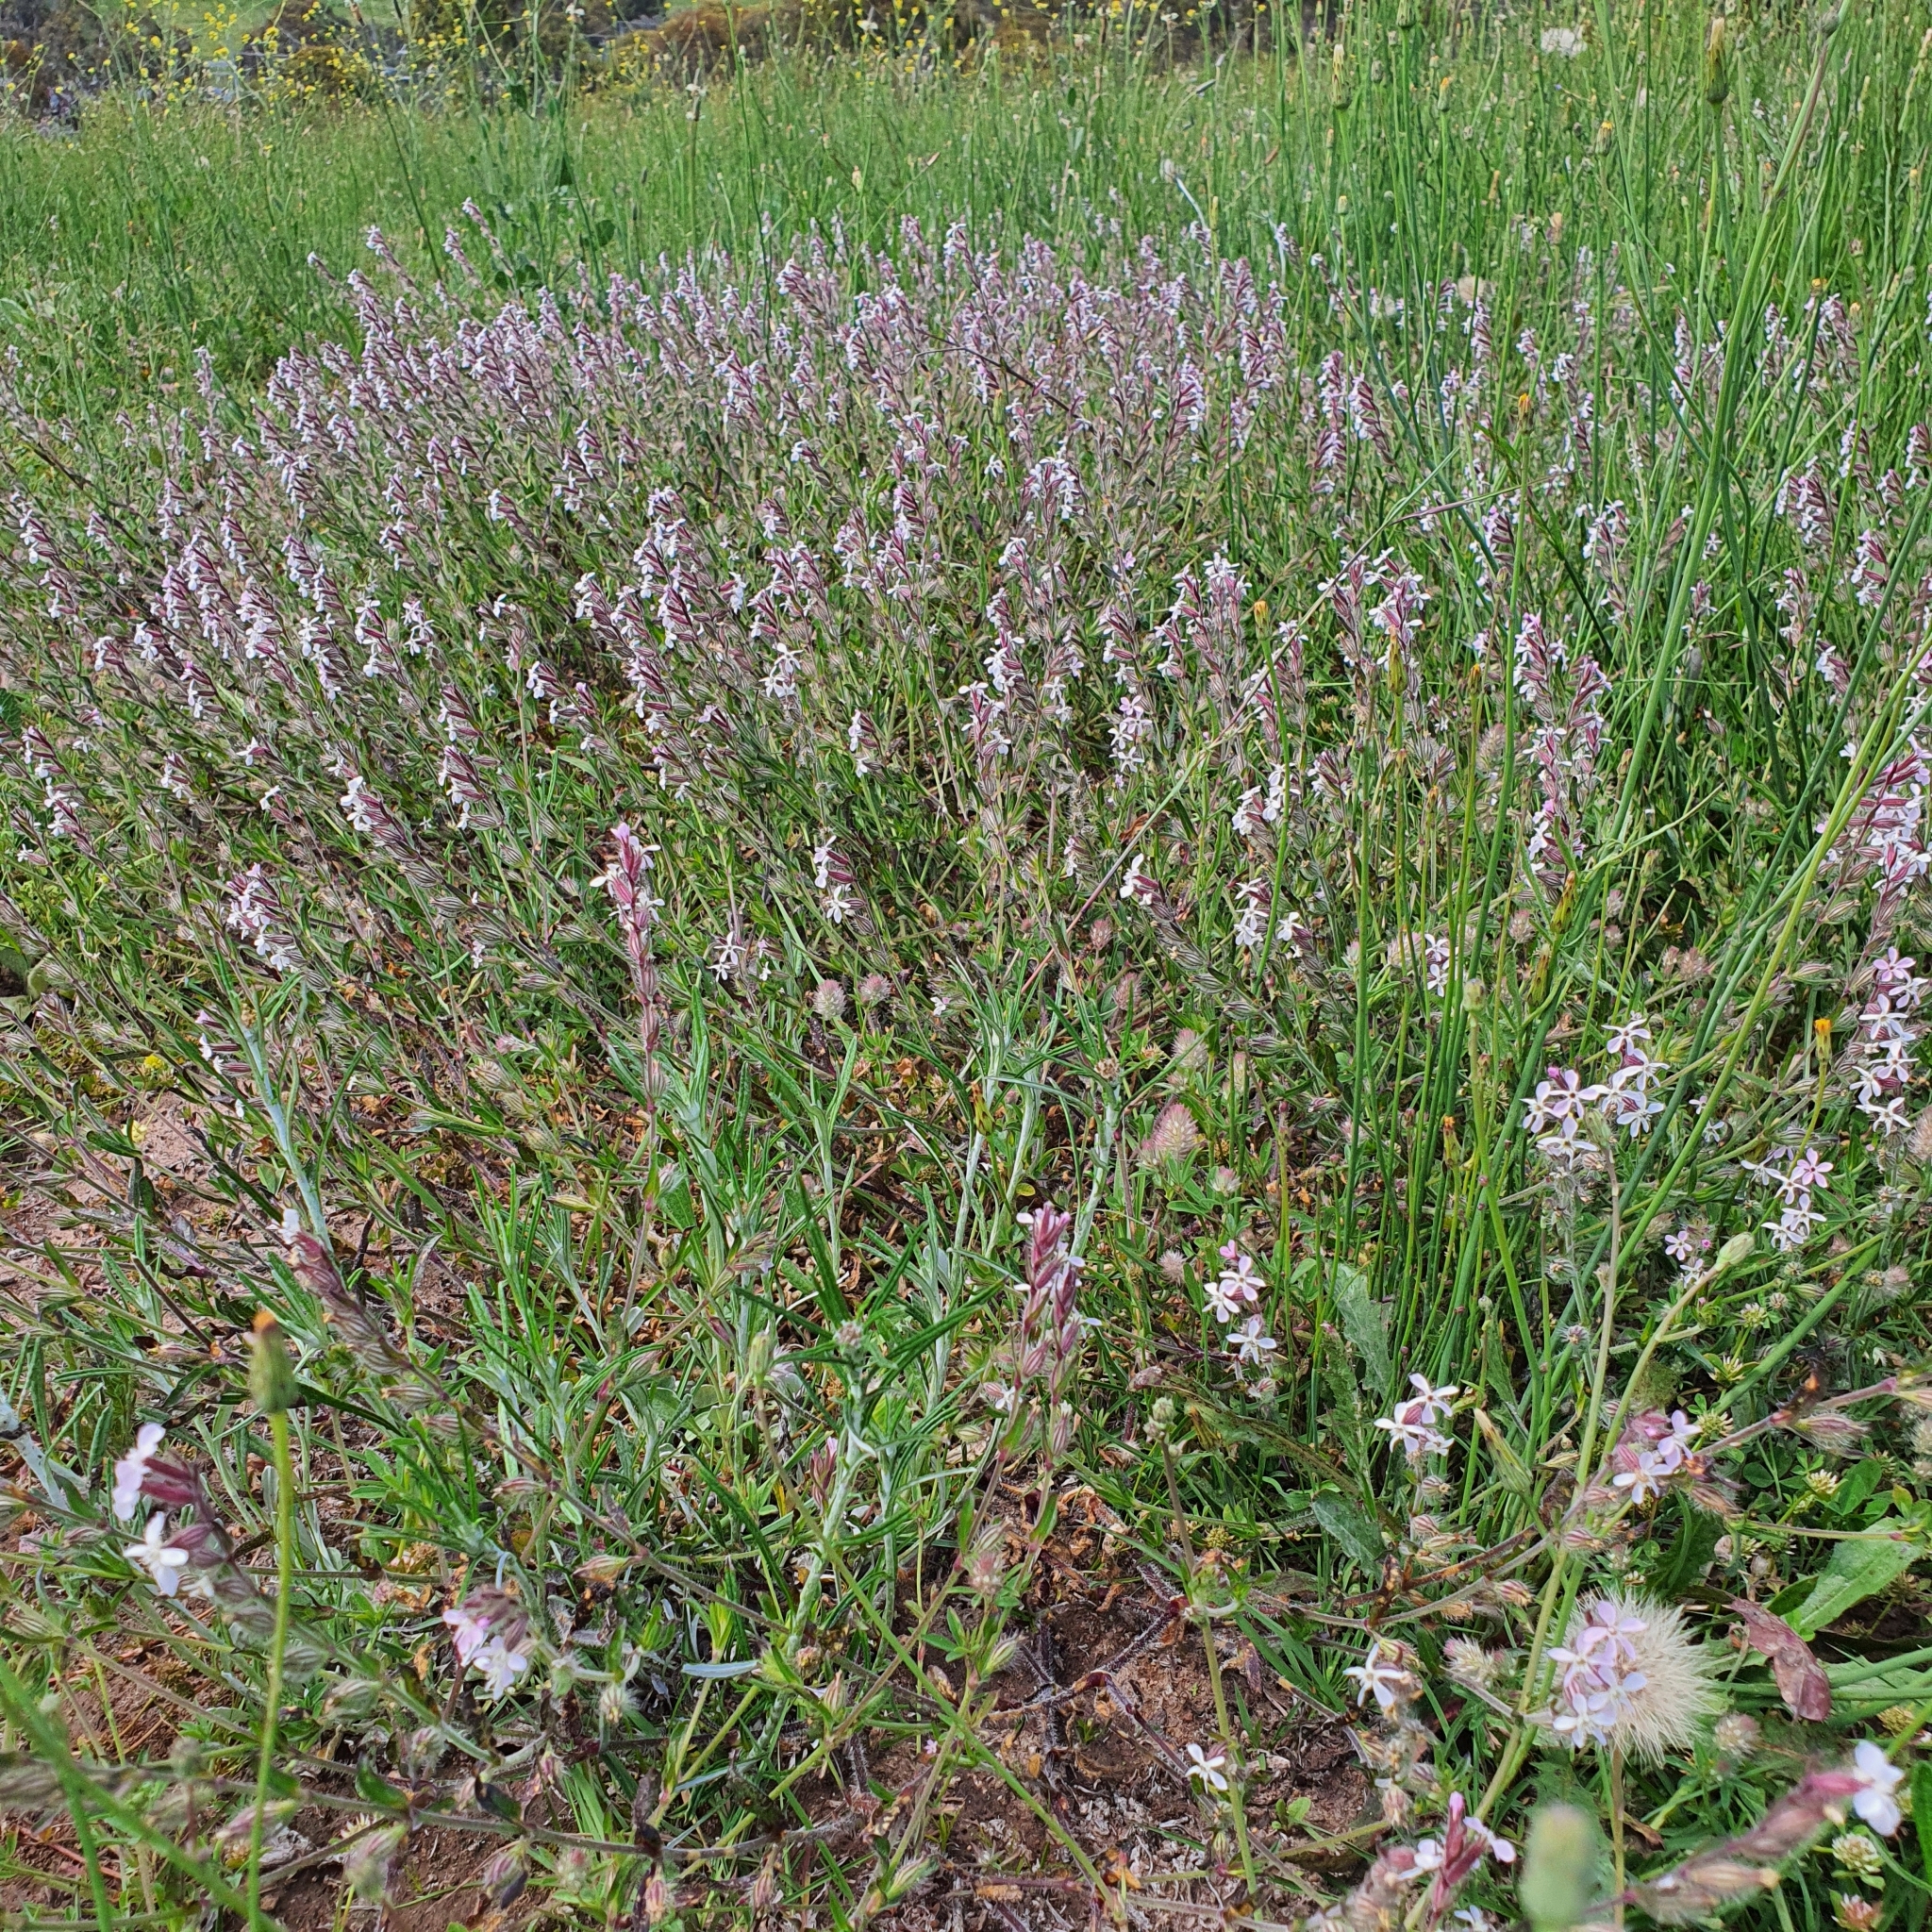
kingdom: Plantae
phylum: Tracheophyta
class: Magnoliopsida
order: Caryophyllales
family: Caryophyllaceae
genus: Silene
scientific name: Silene gallica
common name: Small-flowered catchfly
